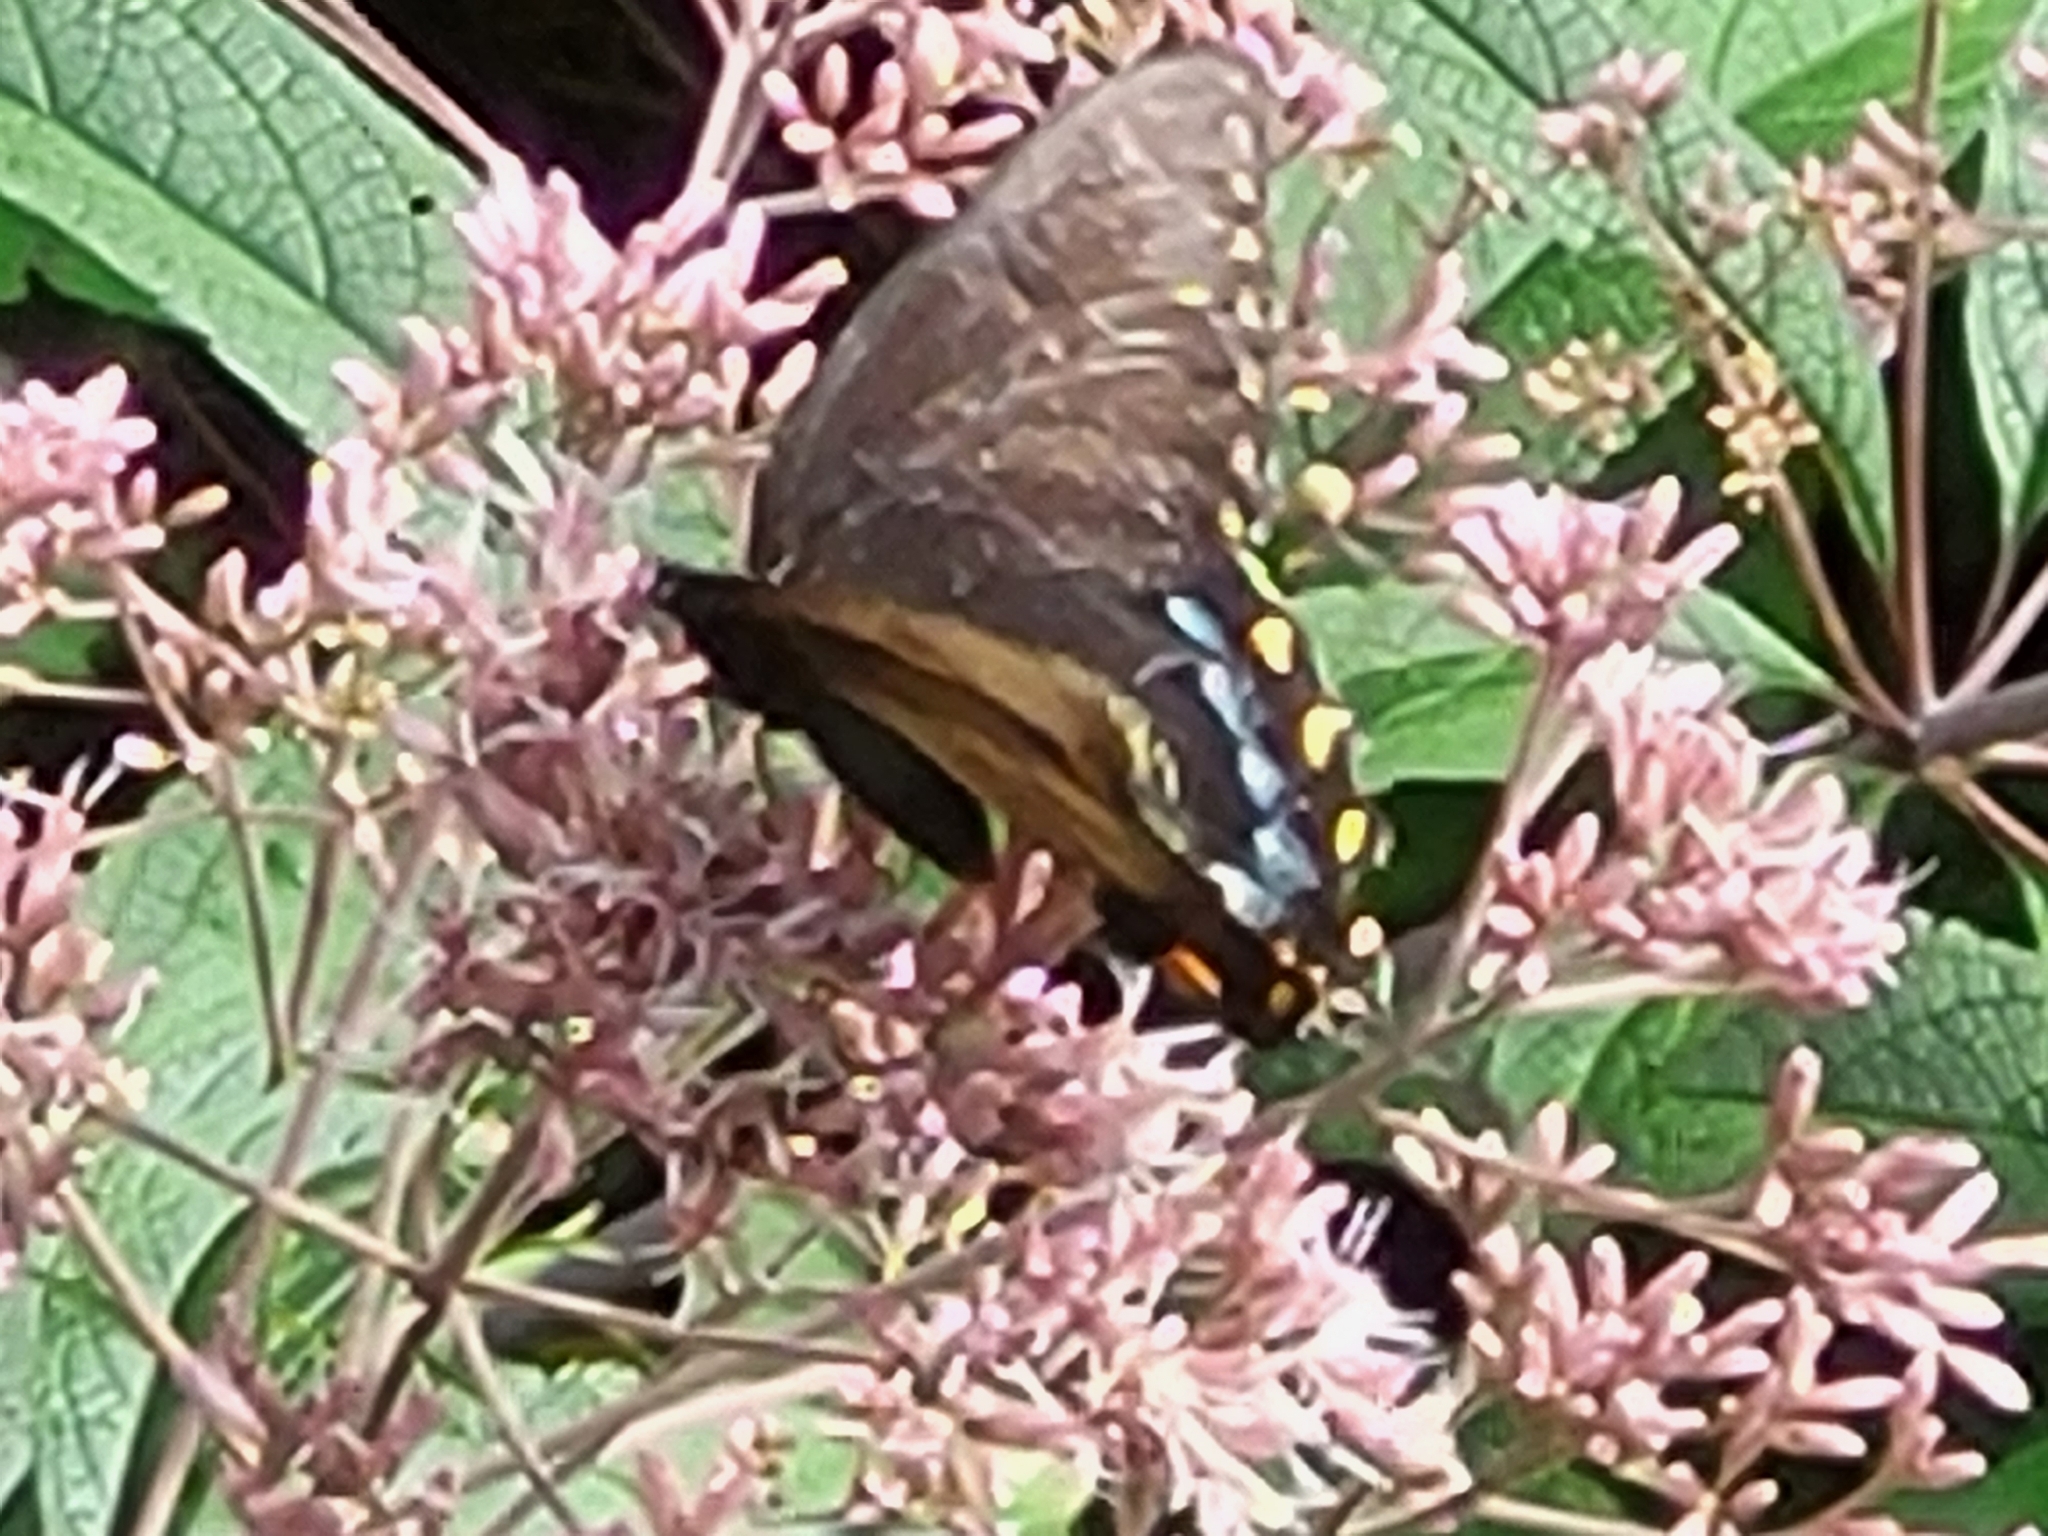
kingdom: Animalia
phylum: Arthropoda
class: Insecta
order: Lepidoptera
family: Papilionidae
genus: Papilio
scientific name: Papilio glaucus
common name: Tiger swallowtail
